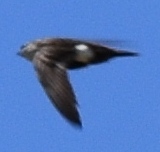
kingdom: Animalia
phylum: Chordata
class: Aves
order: Apodiformes
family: Apodidae
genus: Aeronautes
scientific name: Aeronautes saxatalis
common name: White-throated swift
